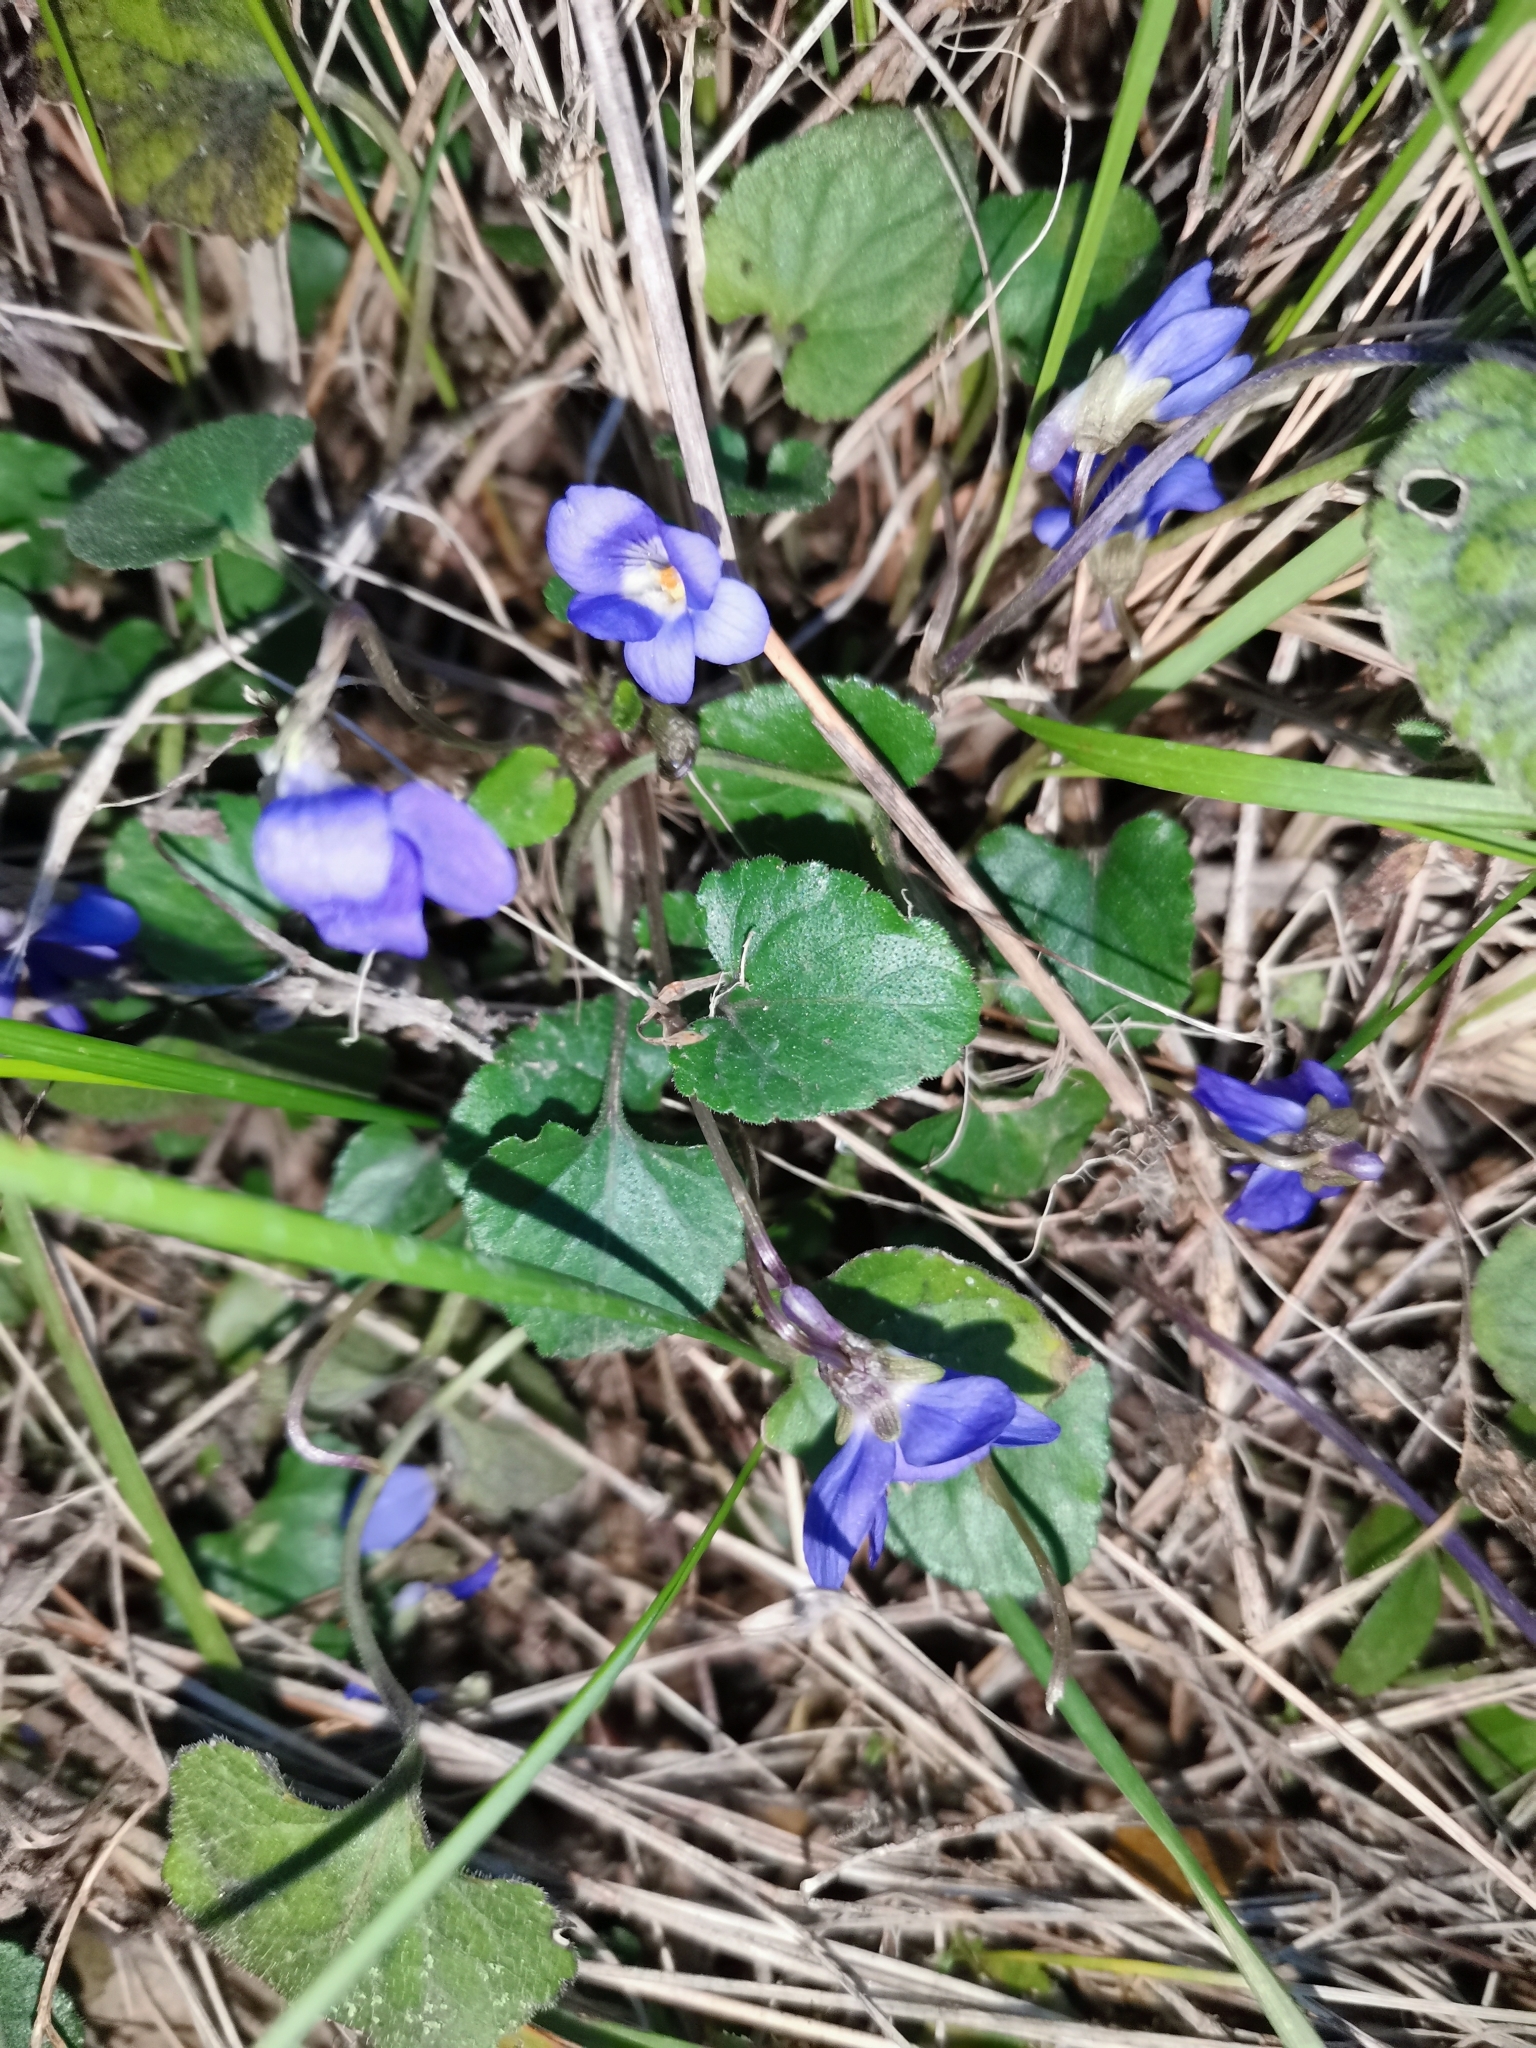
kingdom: Plantae
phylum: Tracheophyta
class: Magnoliopsida
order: Malpighiales
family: Violaceae
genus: Viola
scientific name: Viola odorata
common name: Sweet violet
